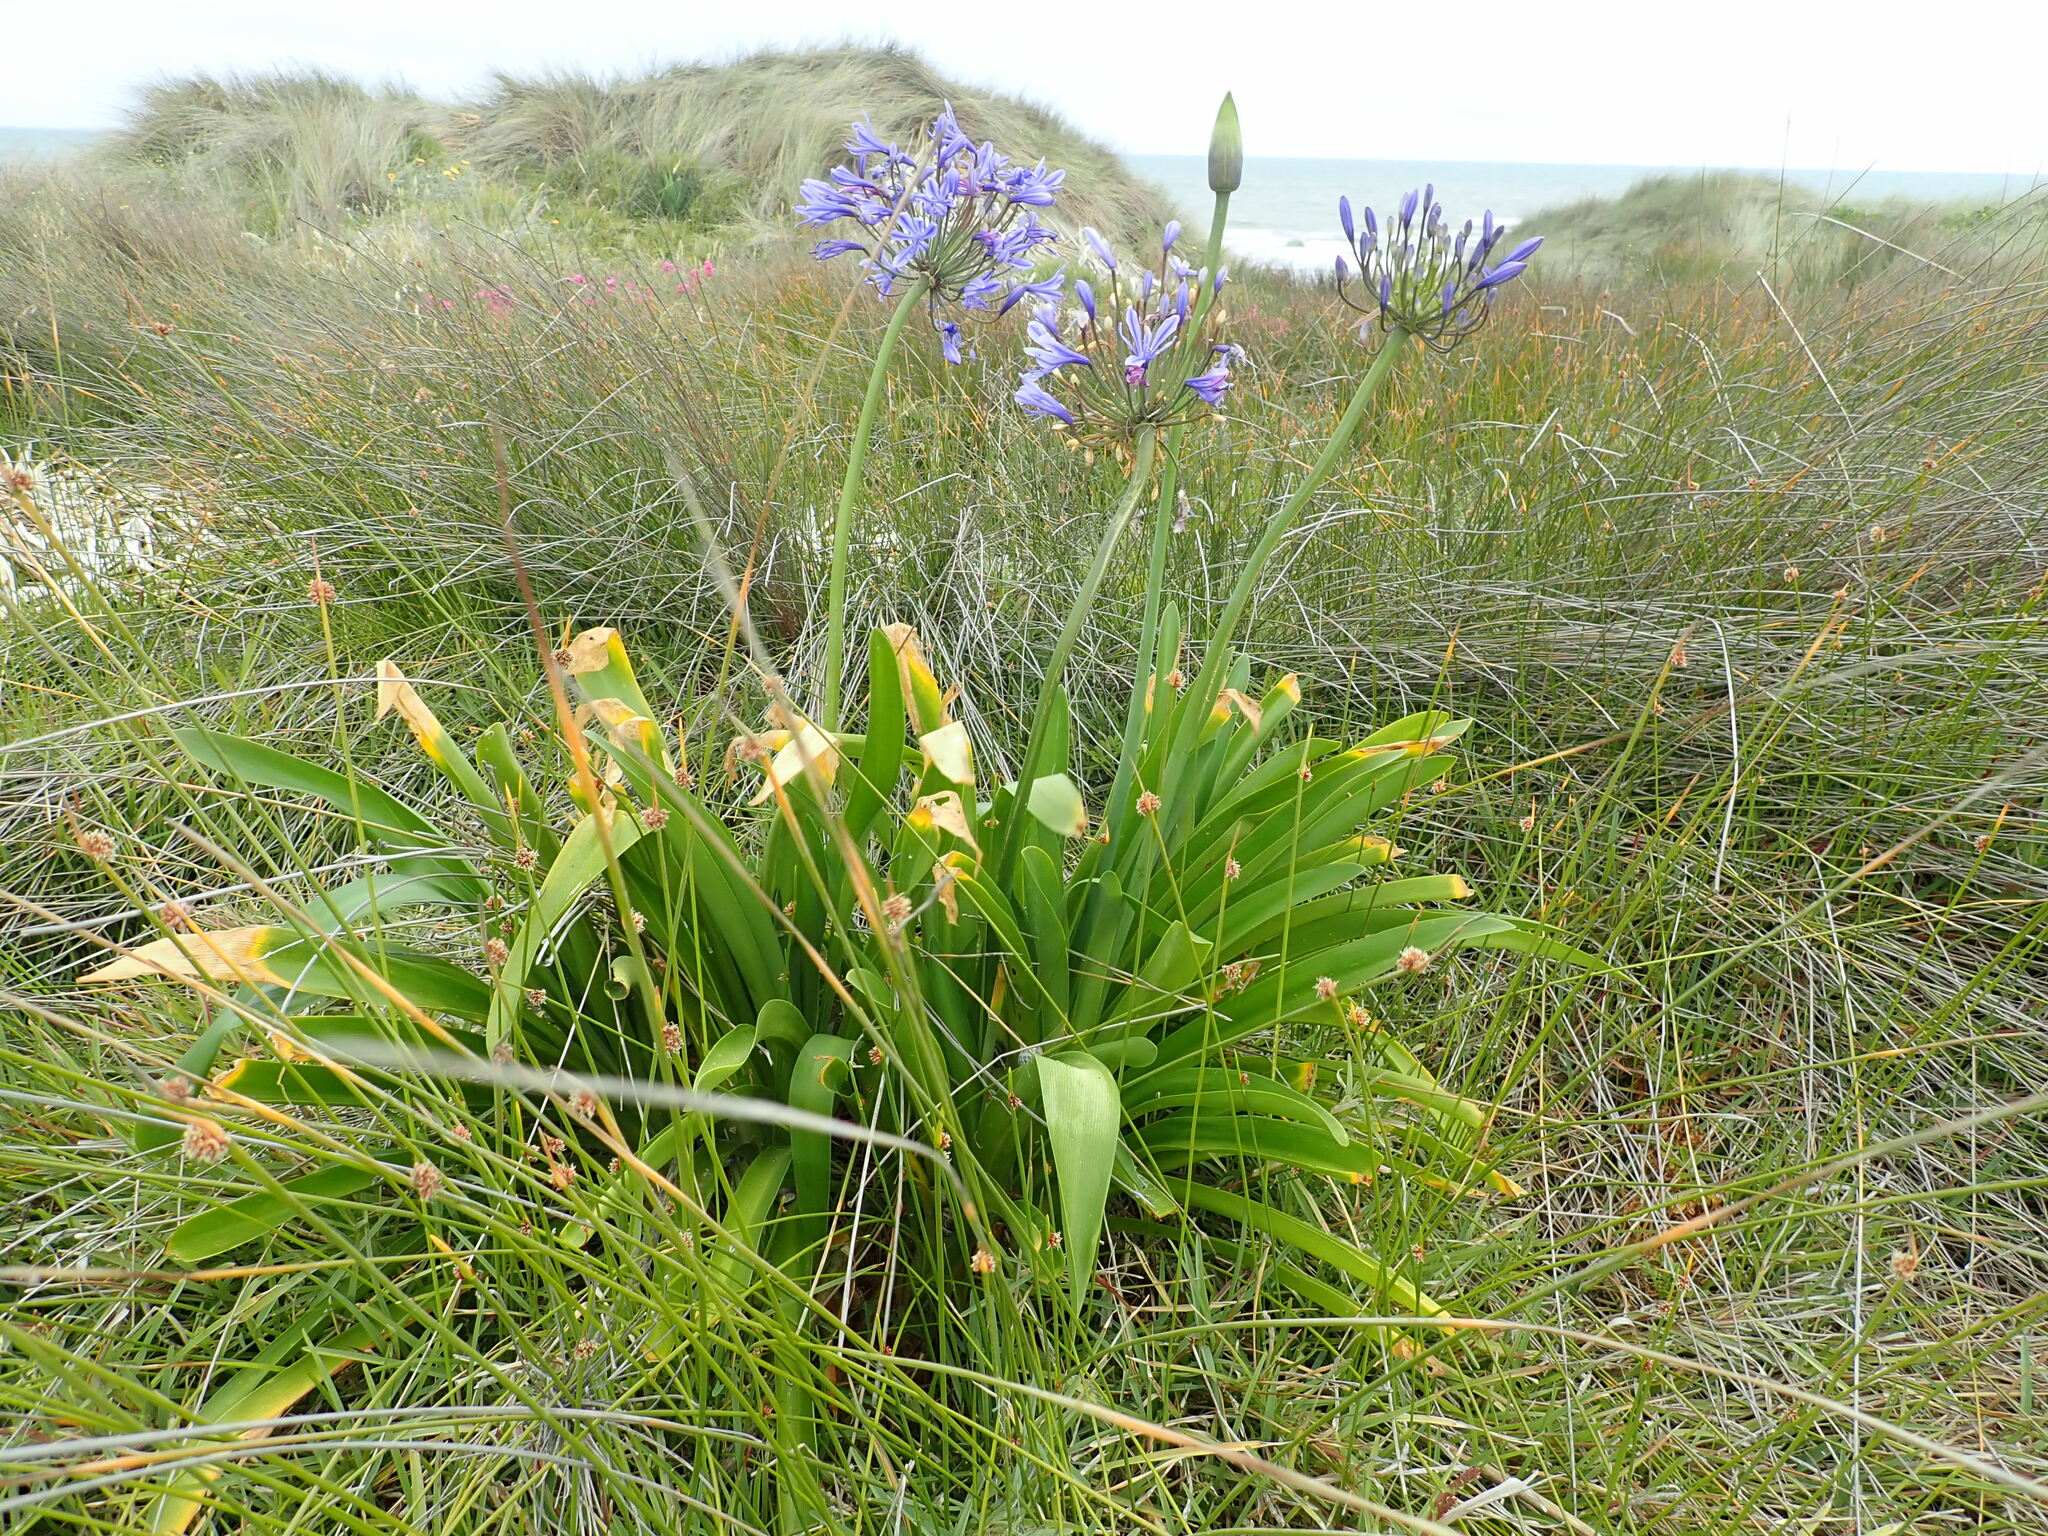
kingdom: Plantae
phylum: Tracheophyta
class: Liliopsida
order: Asparagales
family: Amaryllidaceae
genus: Agapanthus
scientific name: Agapanthus praecox
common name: African-lily
